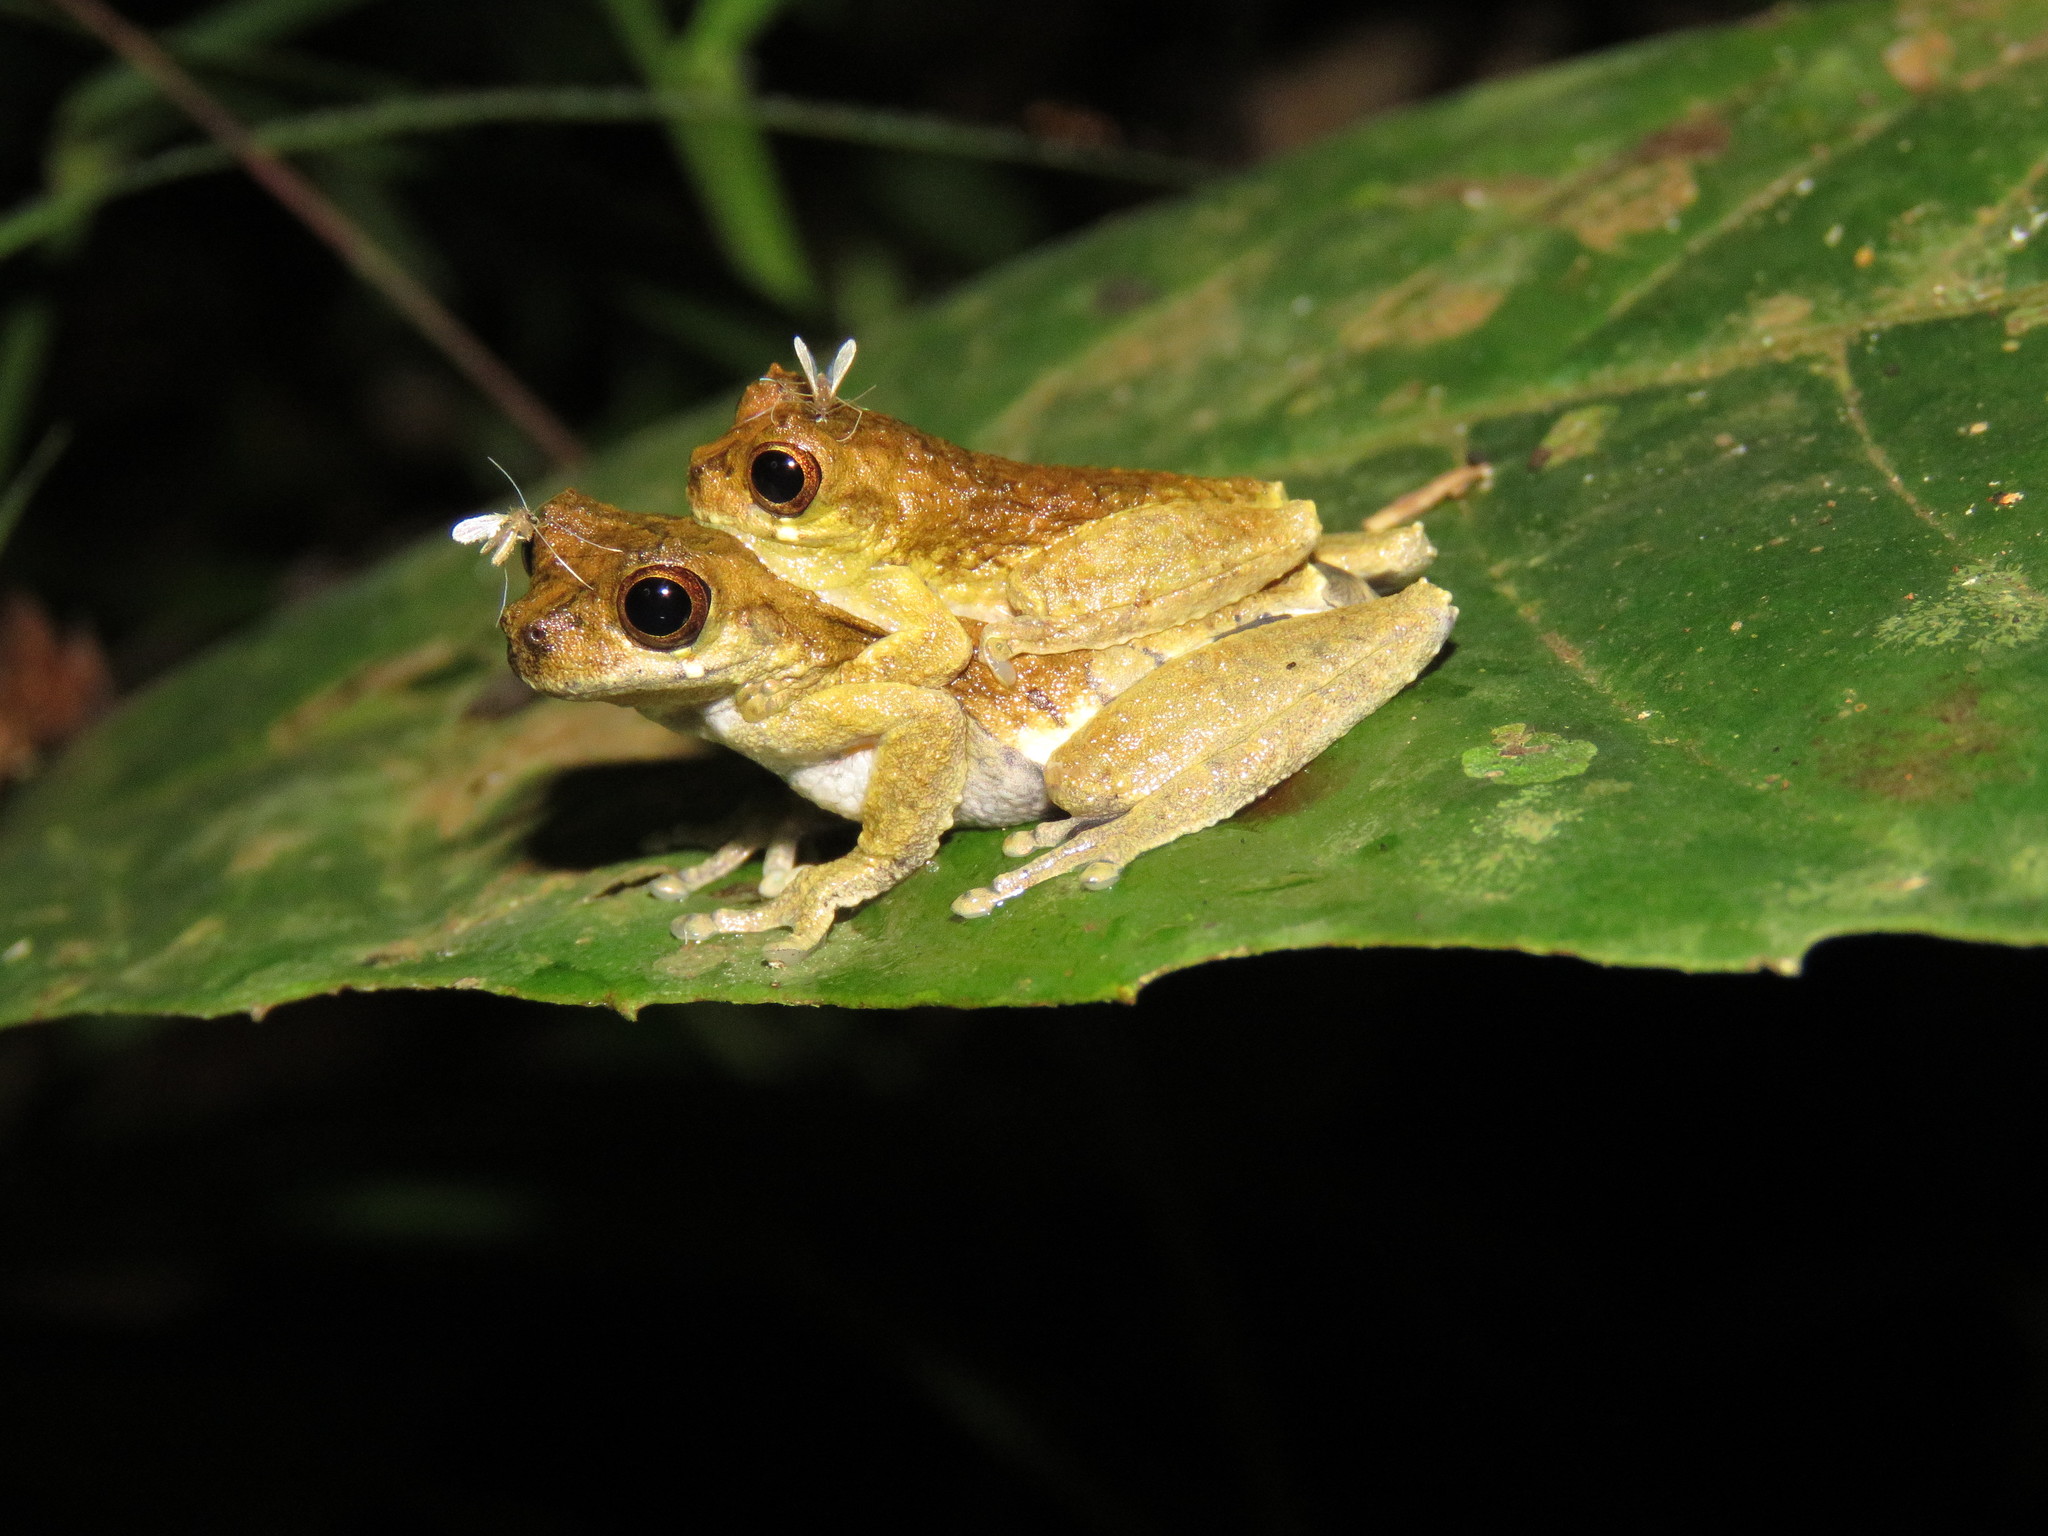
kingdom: Animalia
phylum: Chordata
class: Amphibia
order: Anura
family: Hylidae
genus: Dendropsophus
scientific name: Dendropsophus kamagarini
